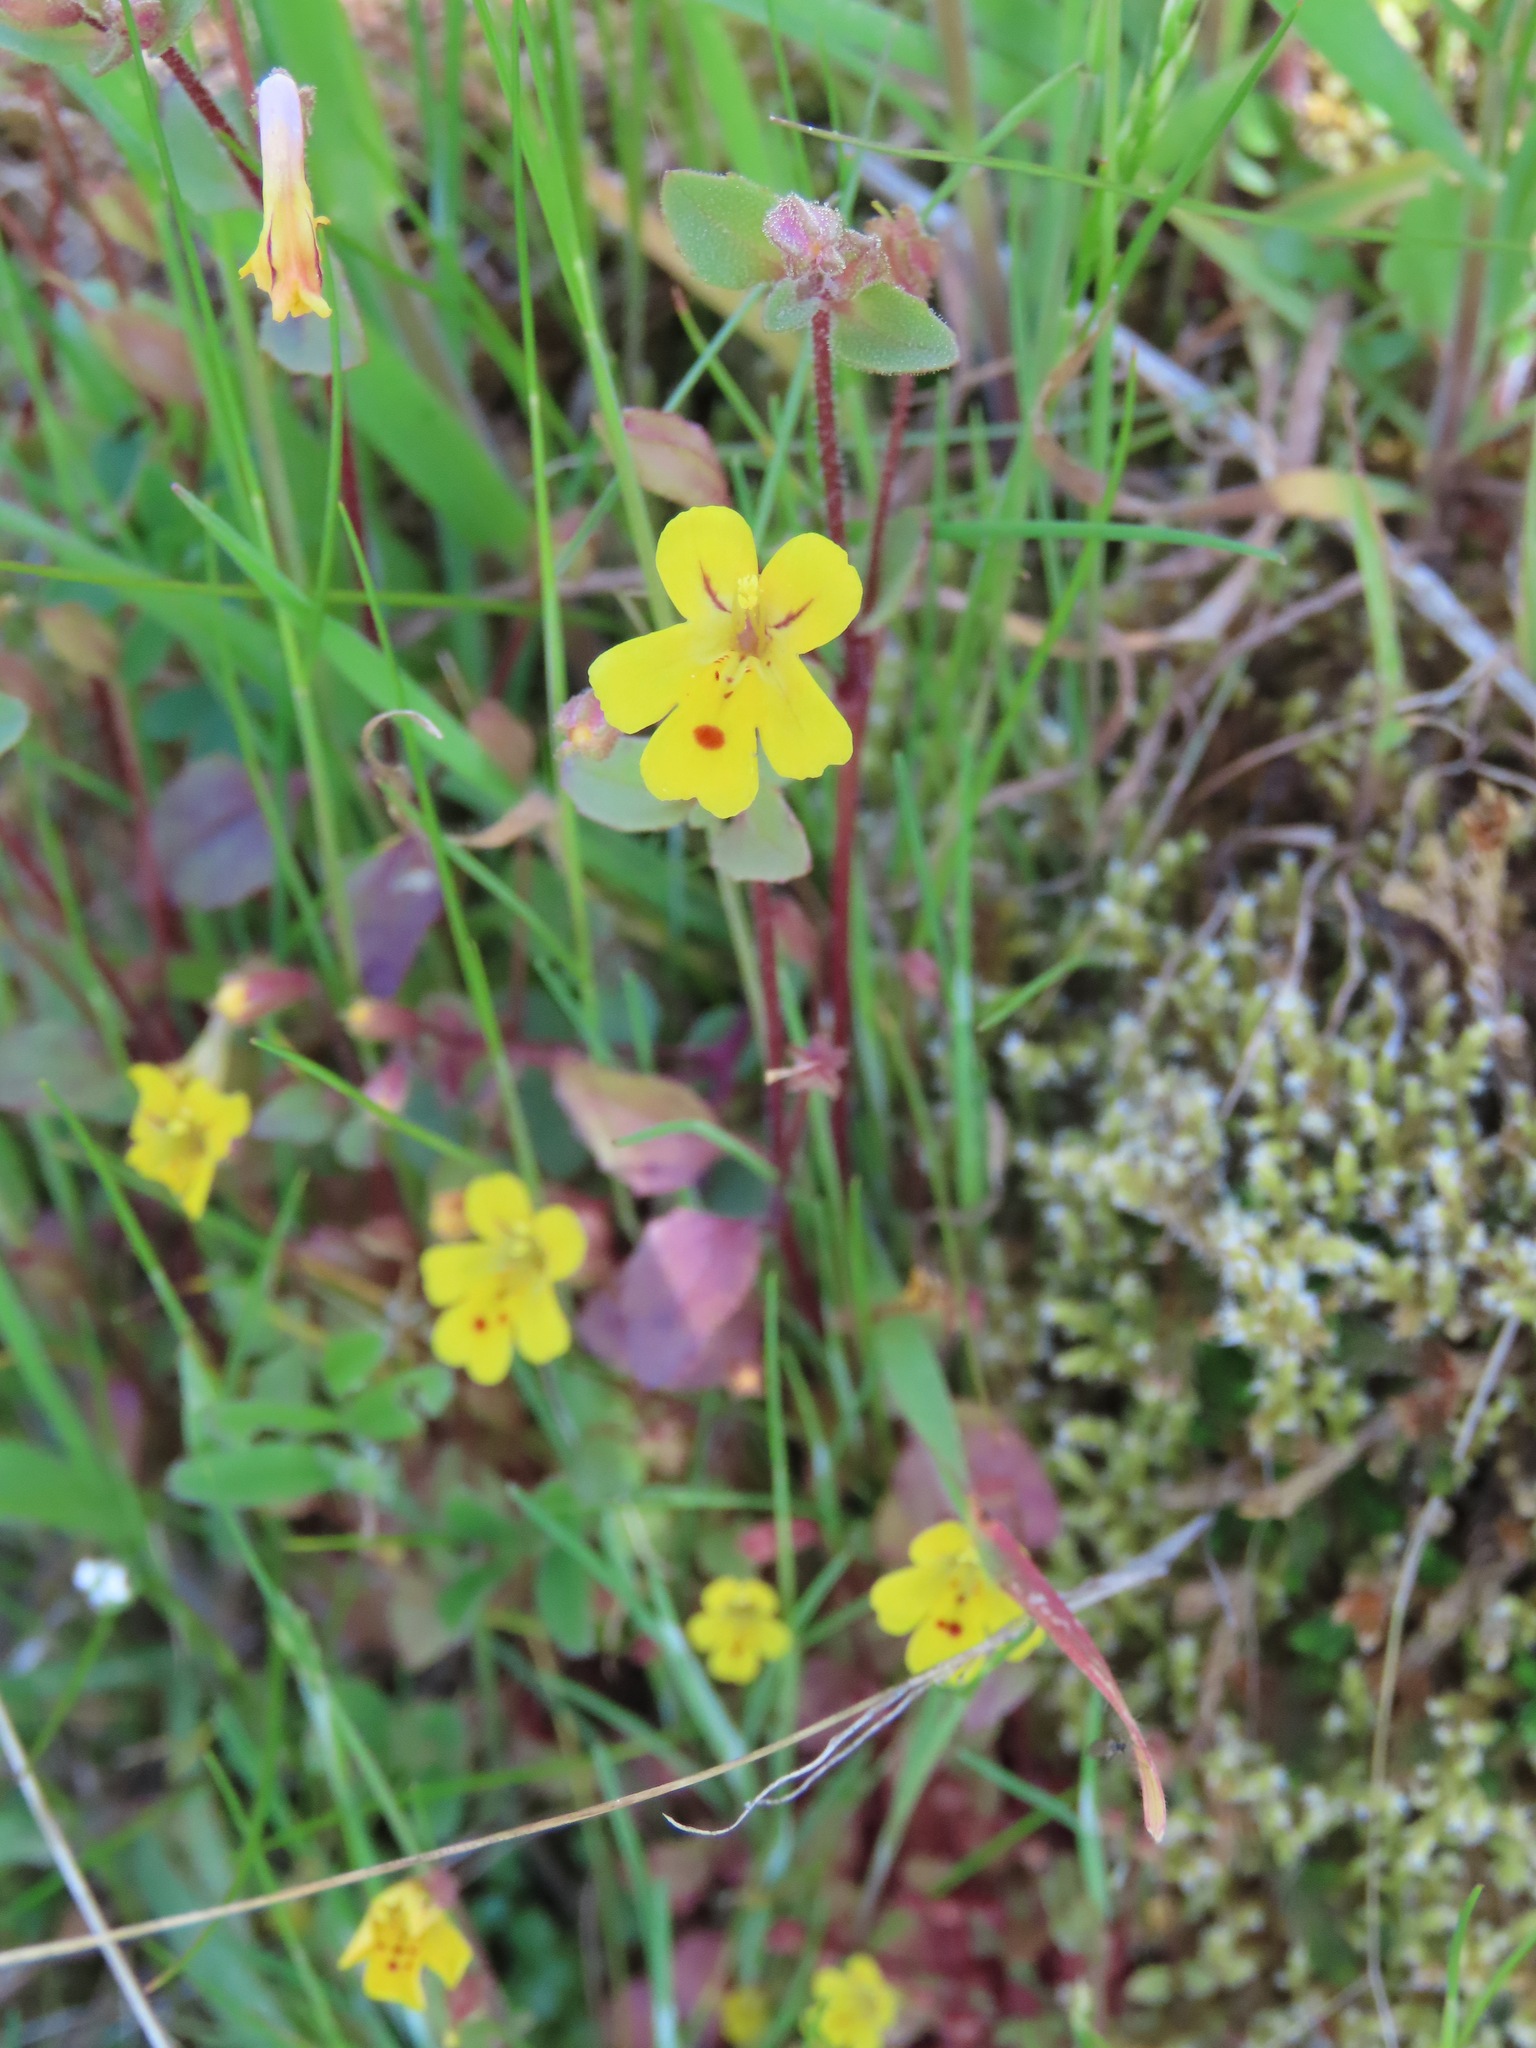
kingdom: Plantae
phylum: Tracheophyta
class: Magnoliopsida
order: Lamiales
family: Phrymaceae
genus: Erythranthe
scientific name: Erythranthe alsinoides
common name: Chickweed monkeyflower
